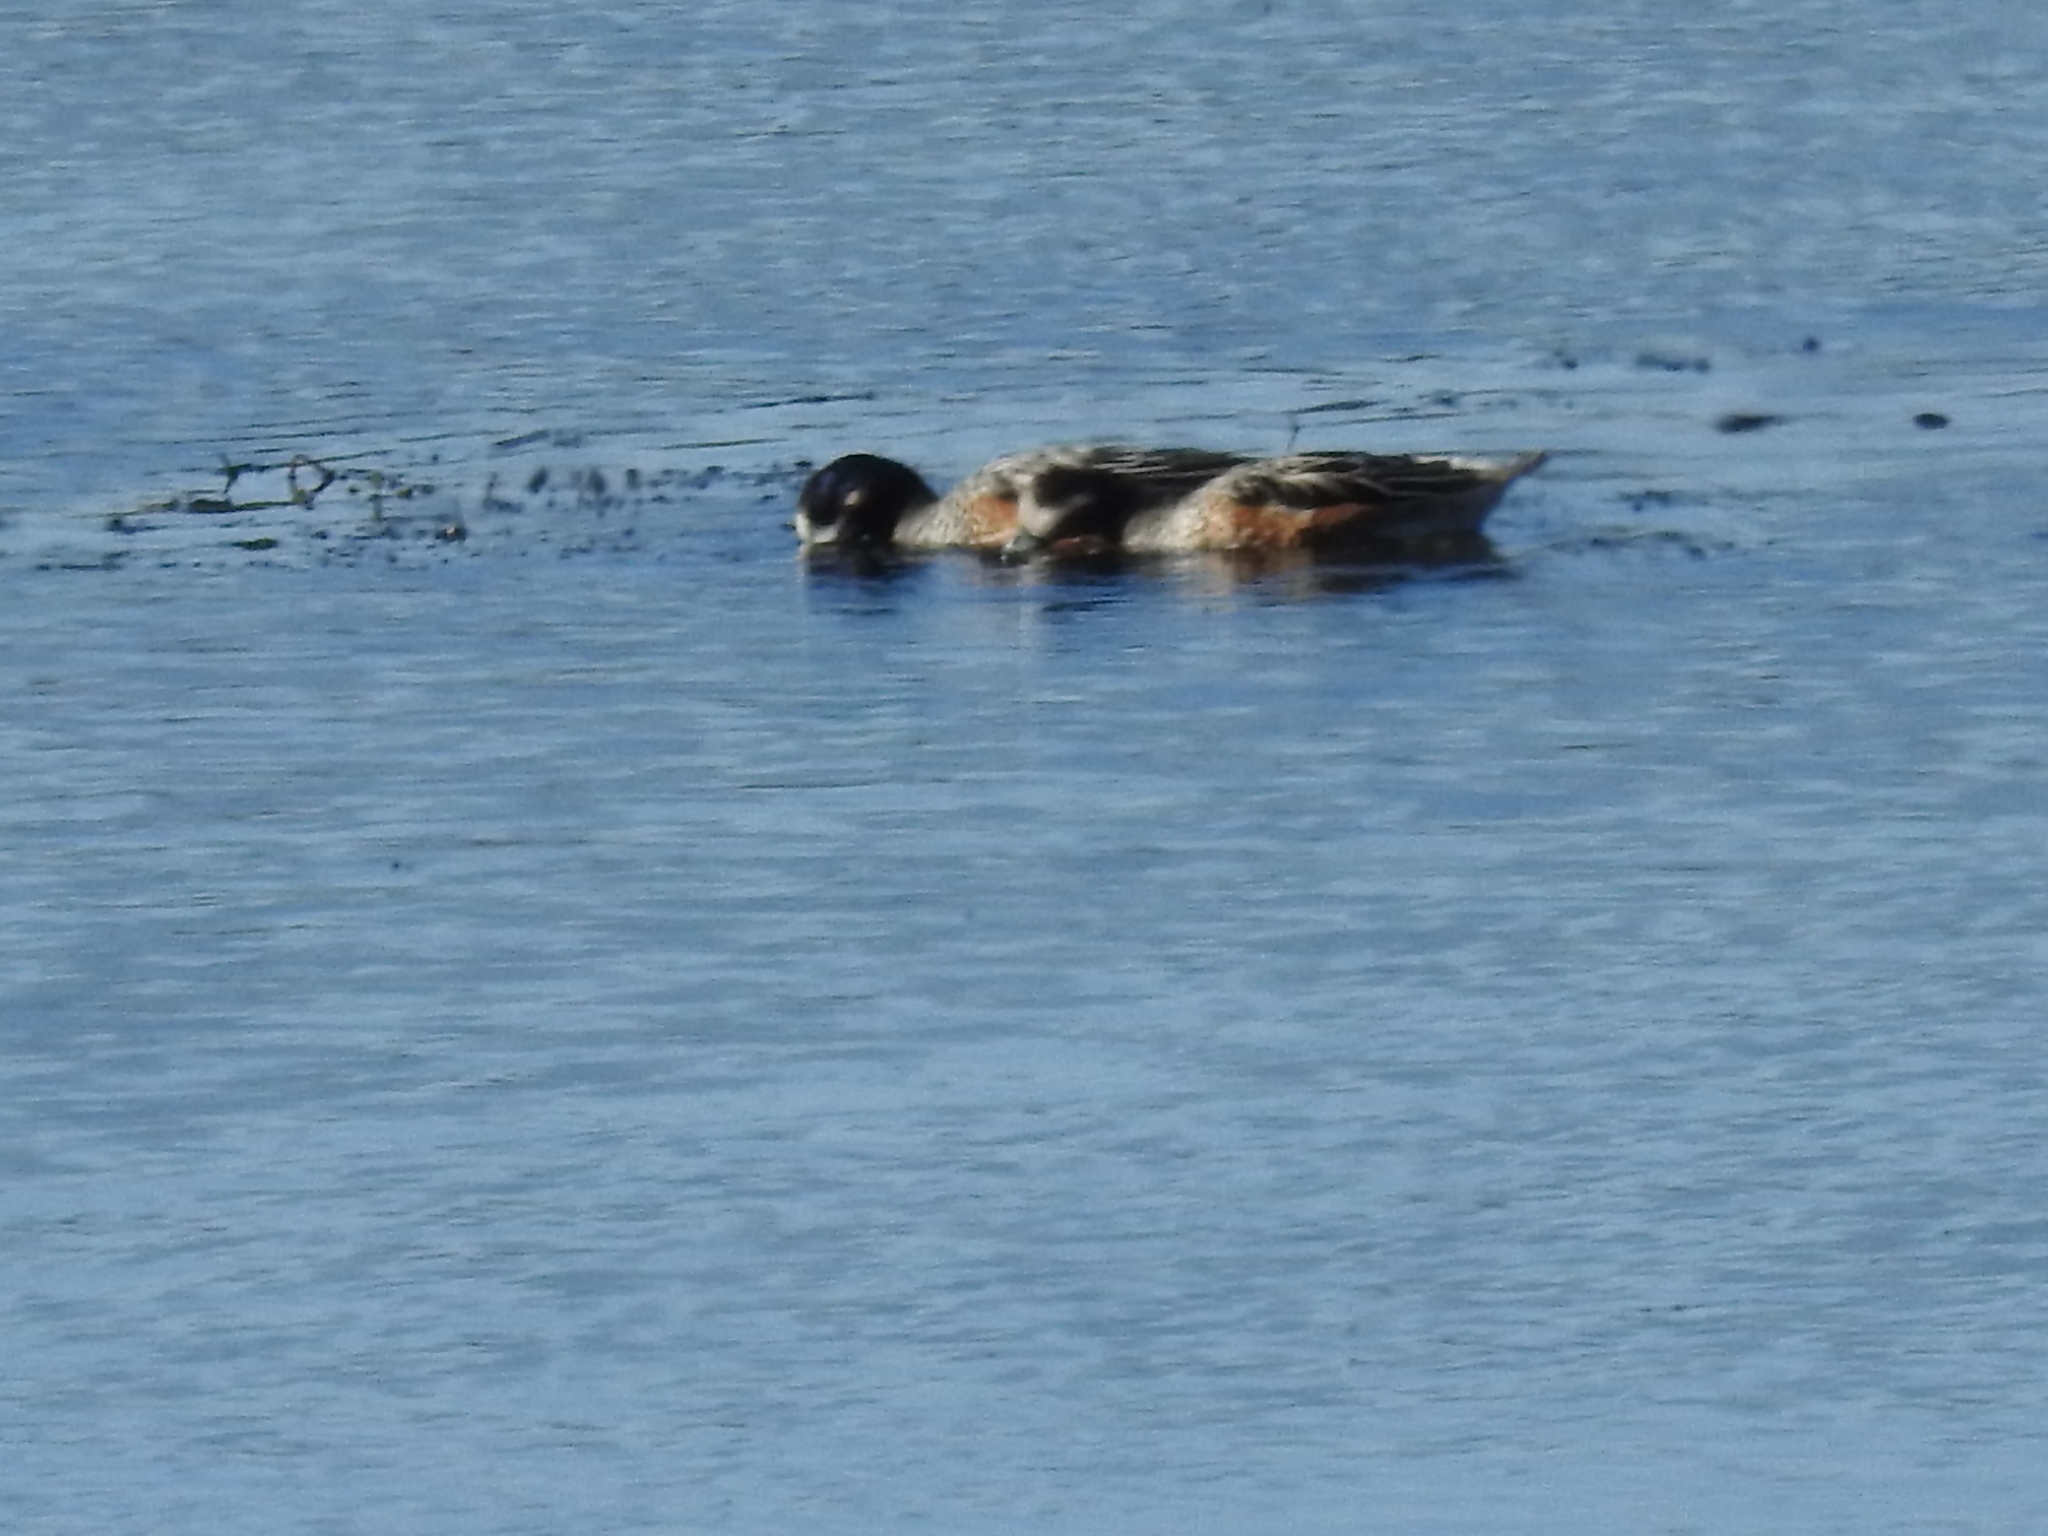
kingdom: Animalia
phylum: Chordata
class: Aves
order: Anseriformes
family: Anatidae
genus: Mareca
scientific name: Mareca sibilatrix
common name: Chiloe wigeon
